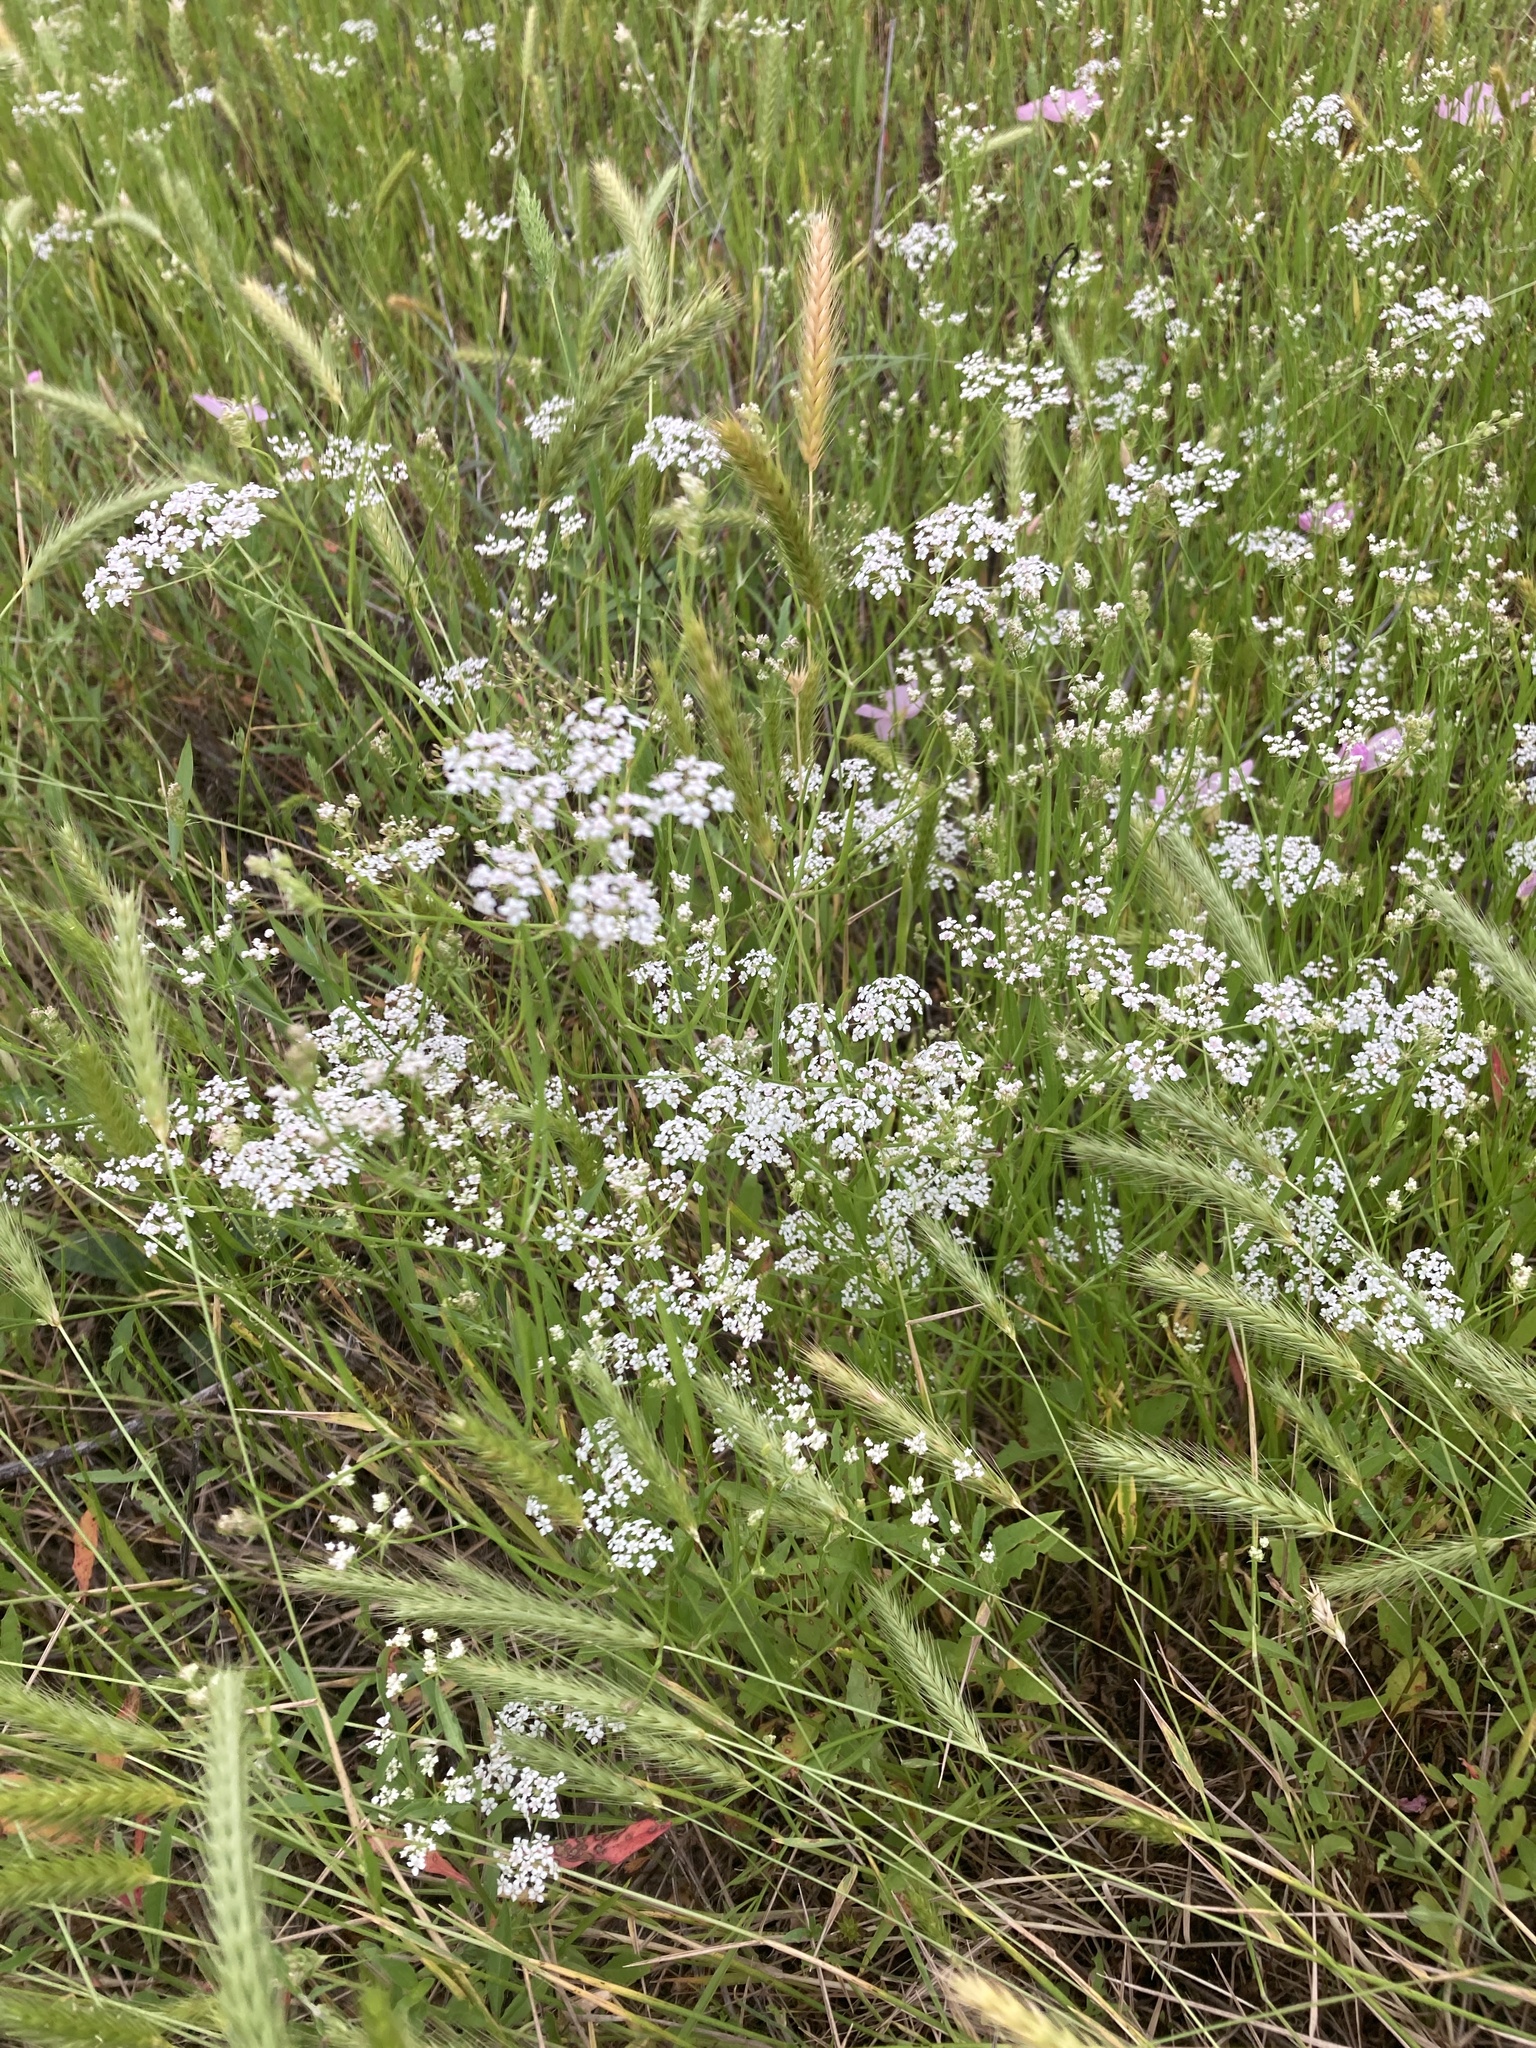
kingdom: Plantae
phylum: Tracheophyta
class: Magnoliopsida
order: Apiales
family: Apiaceae
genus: Torilis
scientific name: Torilis arvensis
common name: Spreading hedge-parsley
